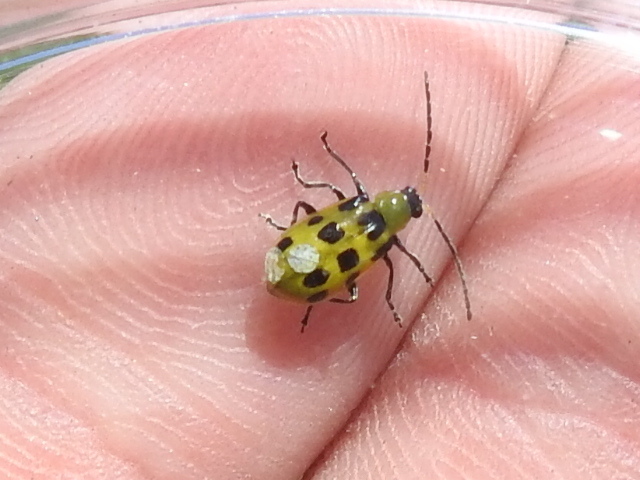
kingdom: Animalia
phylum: Arthropoda
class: Insecta
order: Coleoptera
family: Chrysomelidae
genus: Diabrotica
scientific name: Diabrotica undecimpunctata
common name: Spotted cucumber beetle
